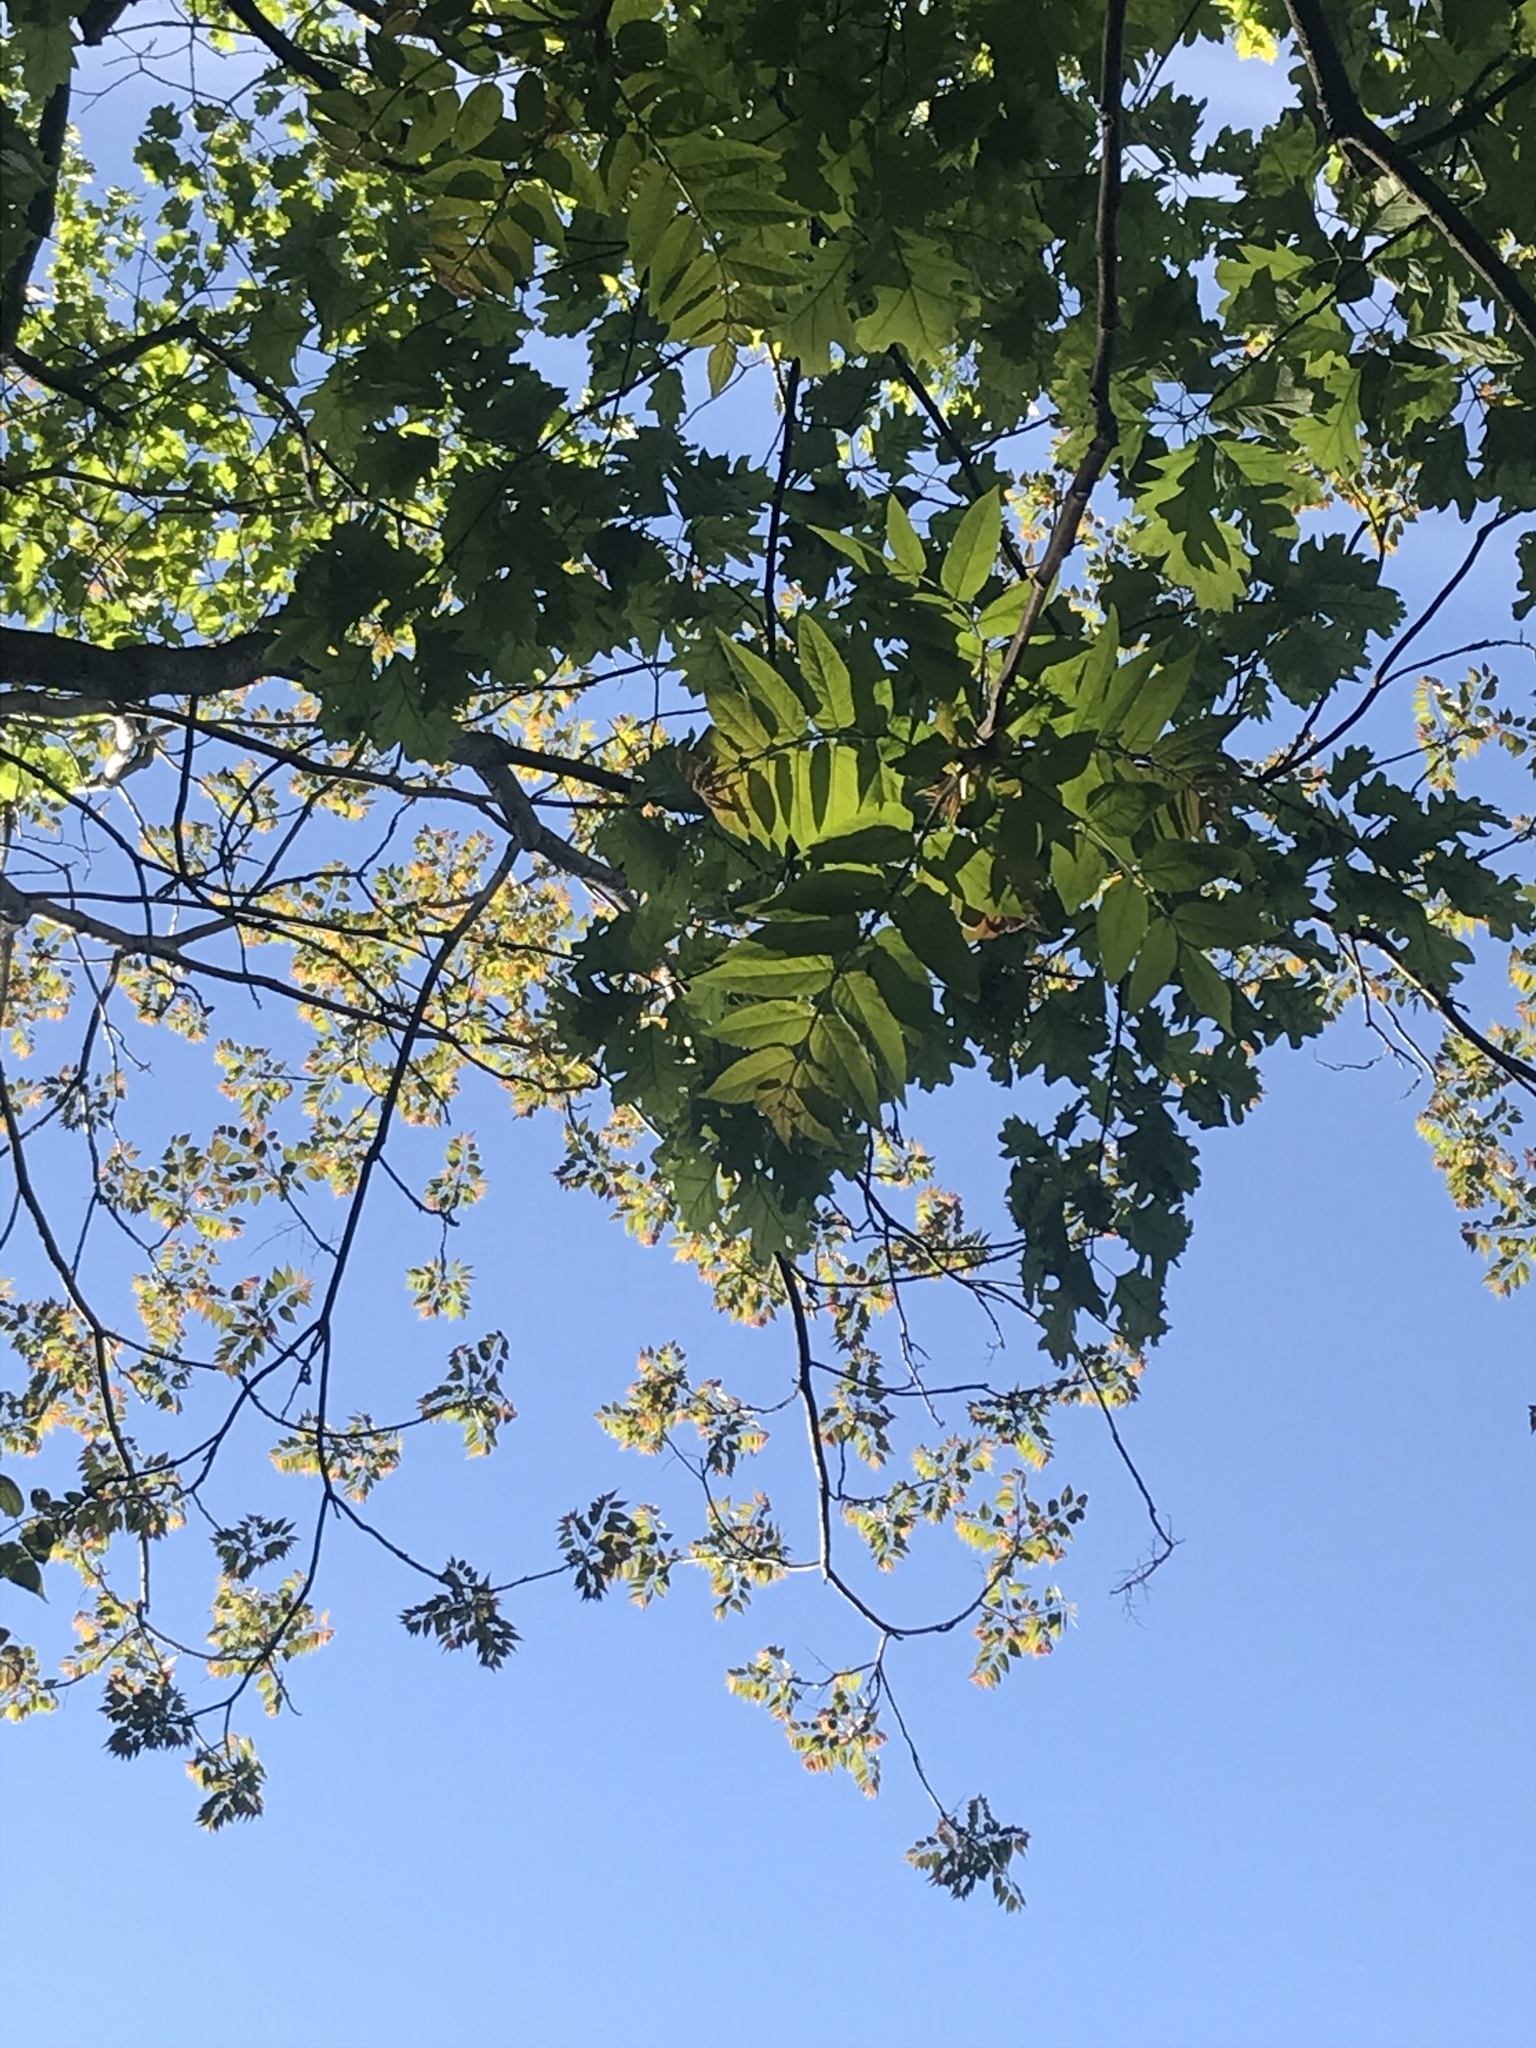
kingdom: Plantae
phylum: Tracheophyta
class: Magnoliopsida
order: Sapindales
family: Simaroubaceae
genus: Ailanthus
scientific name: Ailanthus altissima
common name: Tree-of-heaven
